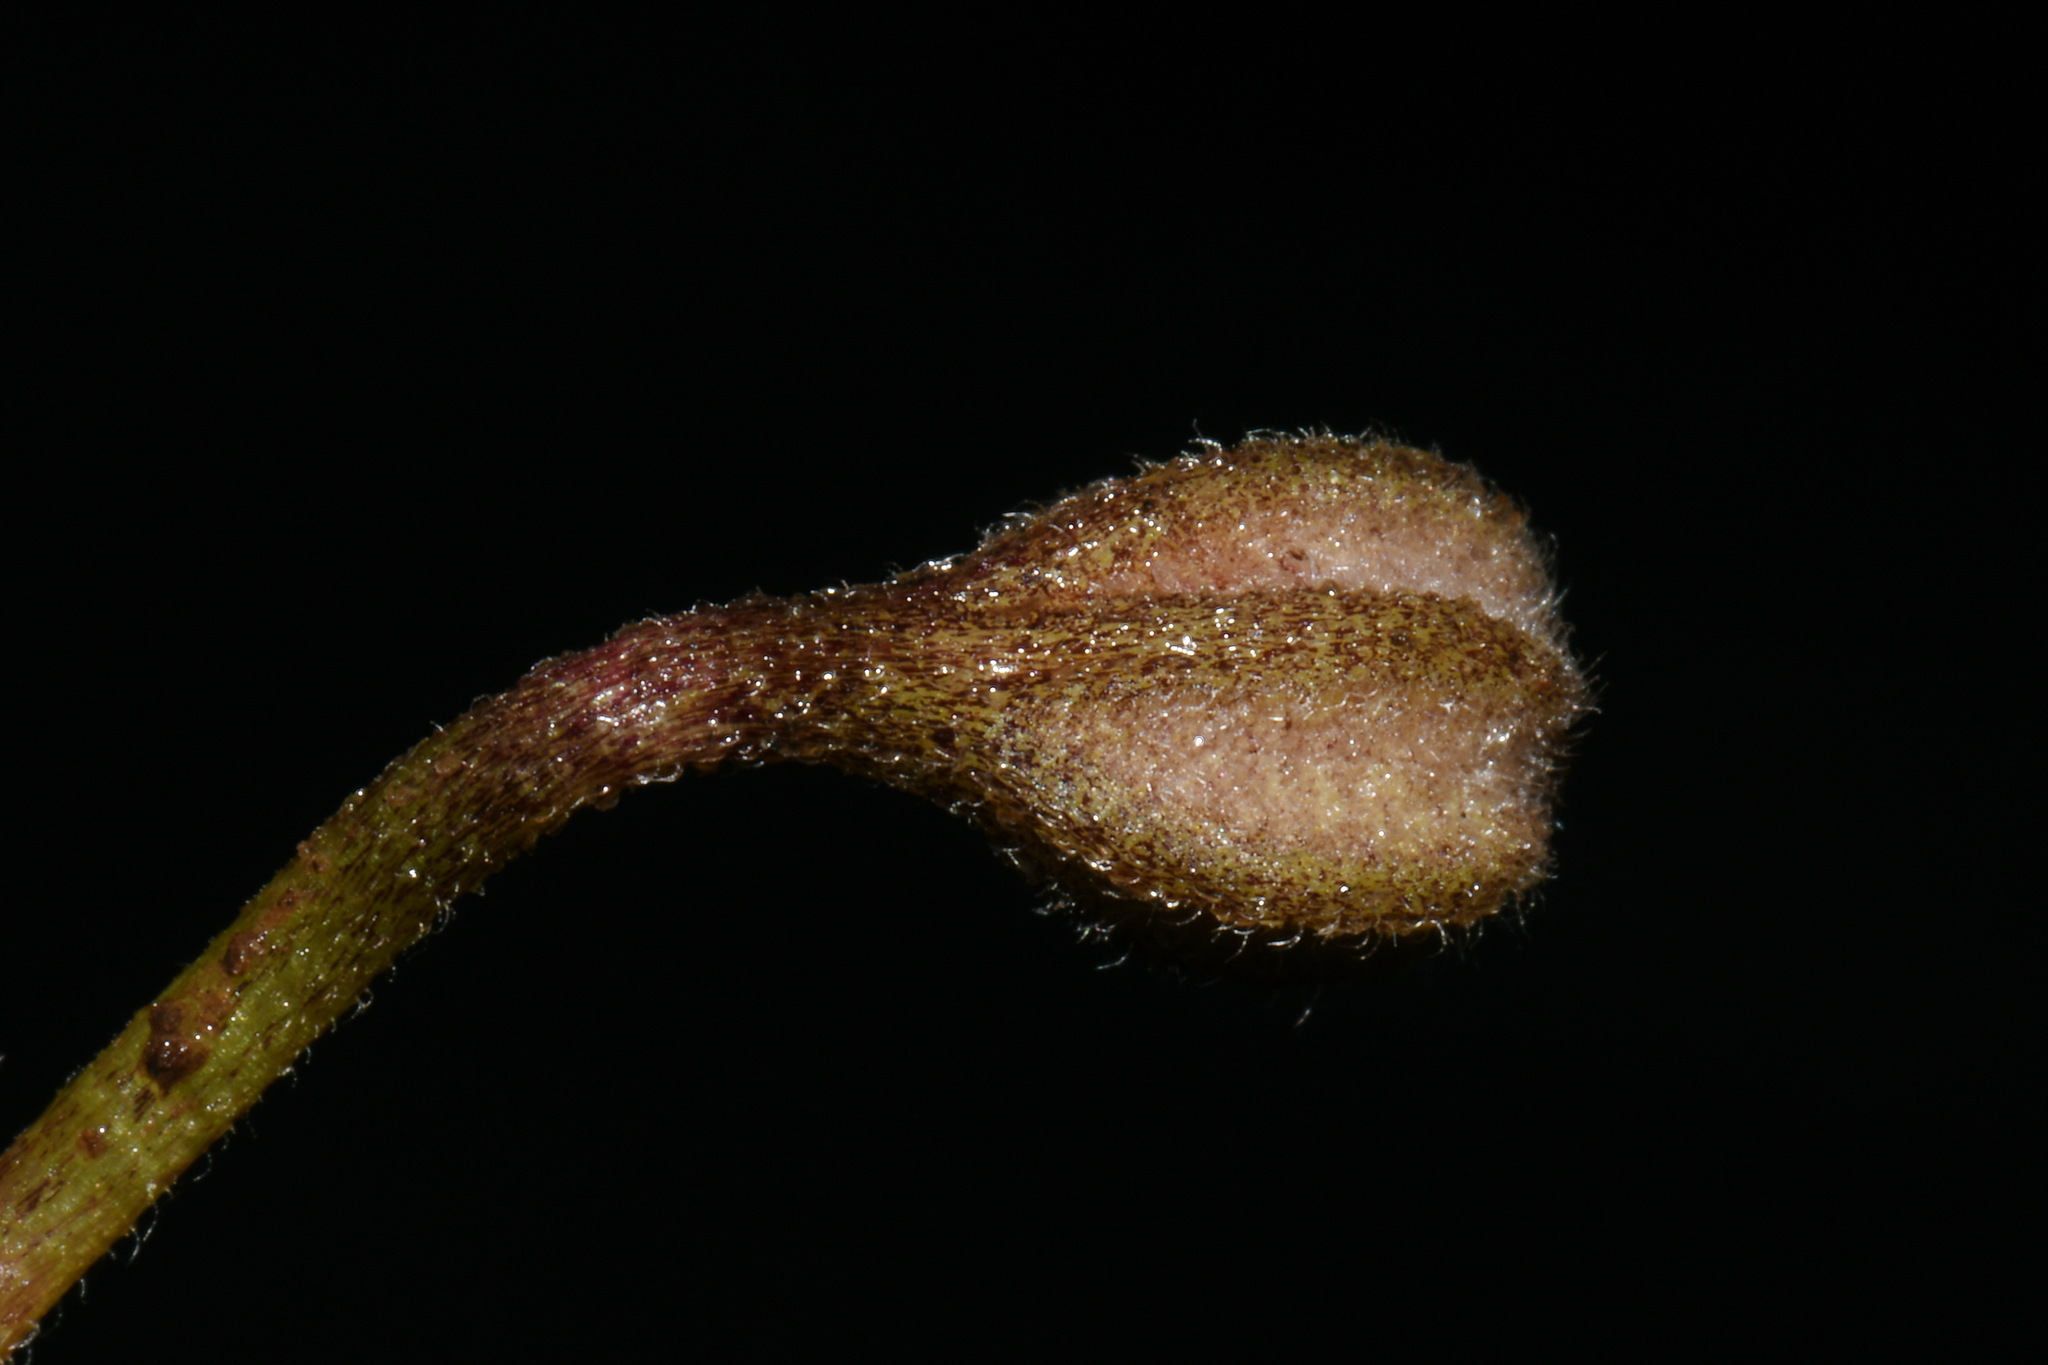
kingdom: Plantae
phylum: Tracheophyta
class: Magnoliopsida
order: Piperales
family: Aristolochiaceae
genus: Endodeca
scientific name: Endodeca serpentaria
